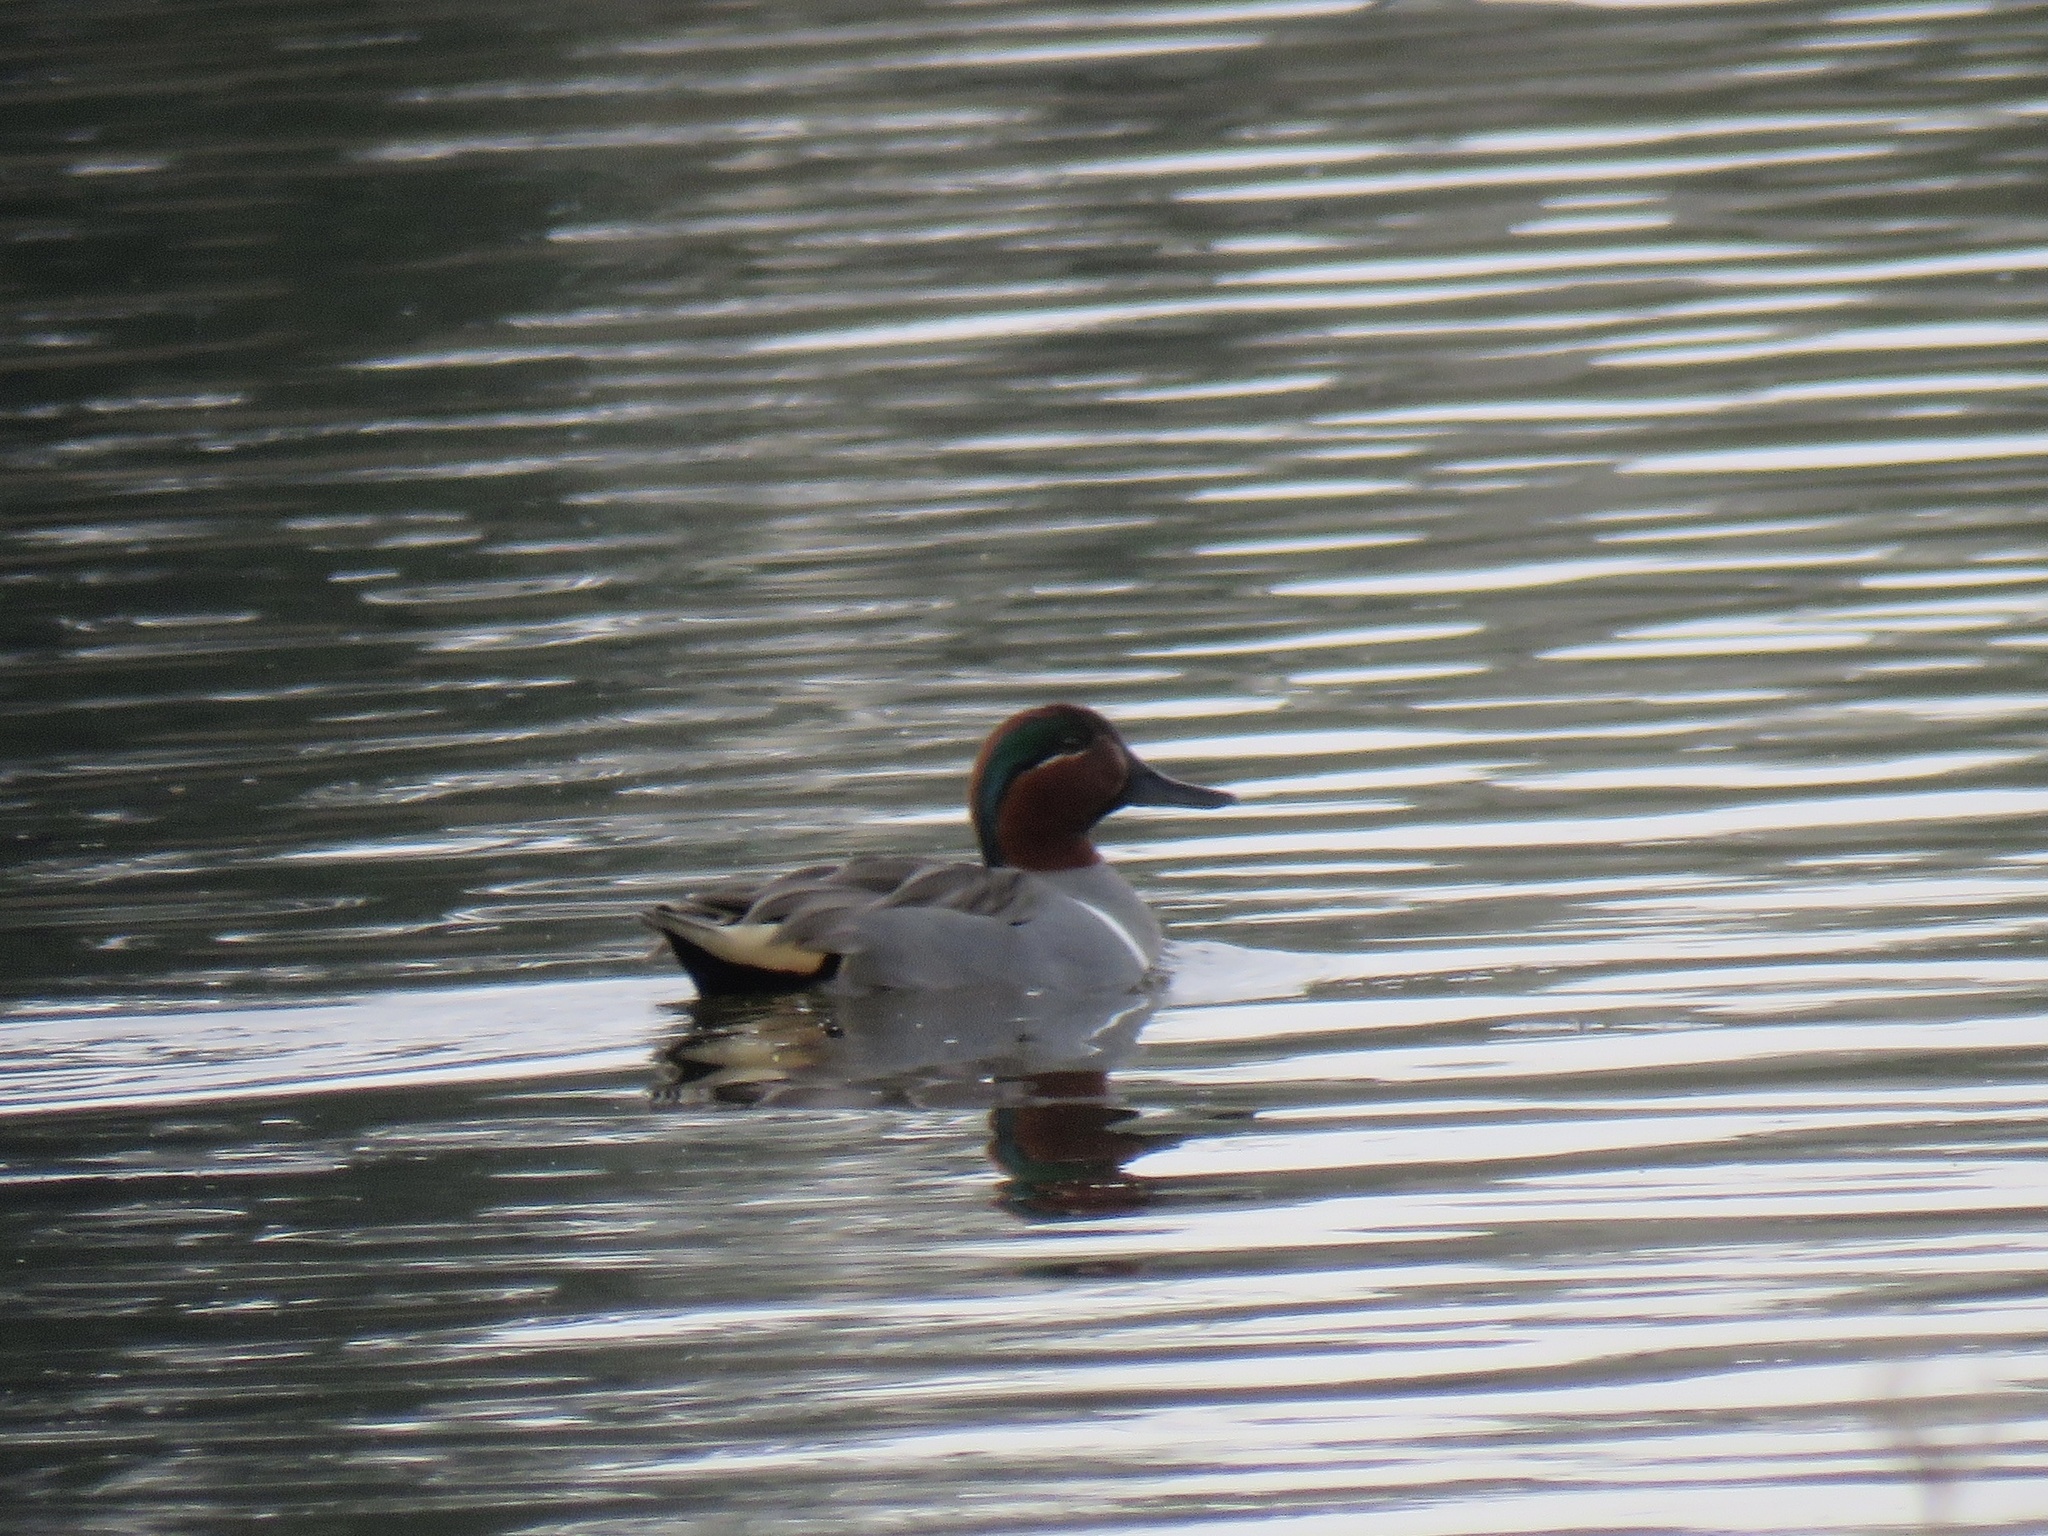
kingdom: Animalia
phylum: Chordata
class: Aves
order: Anseriformes
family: Anatidae
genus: Anas
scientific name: Anas crecca
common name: Eurasian teal
